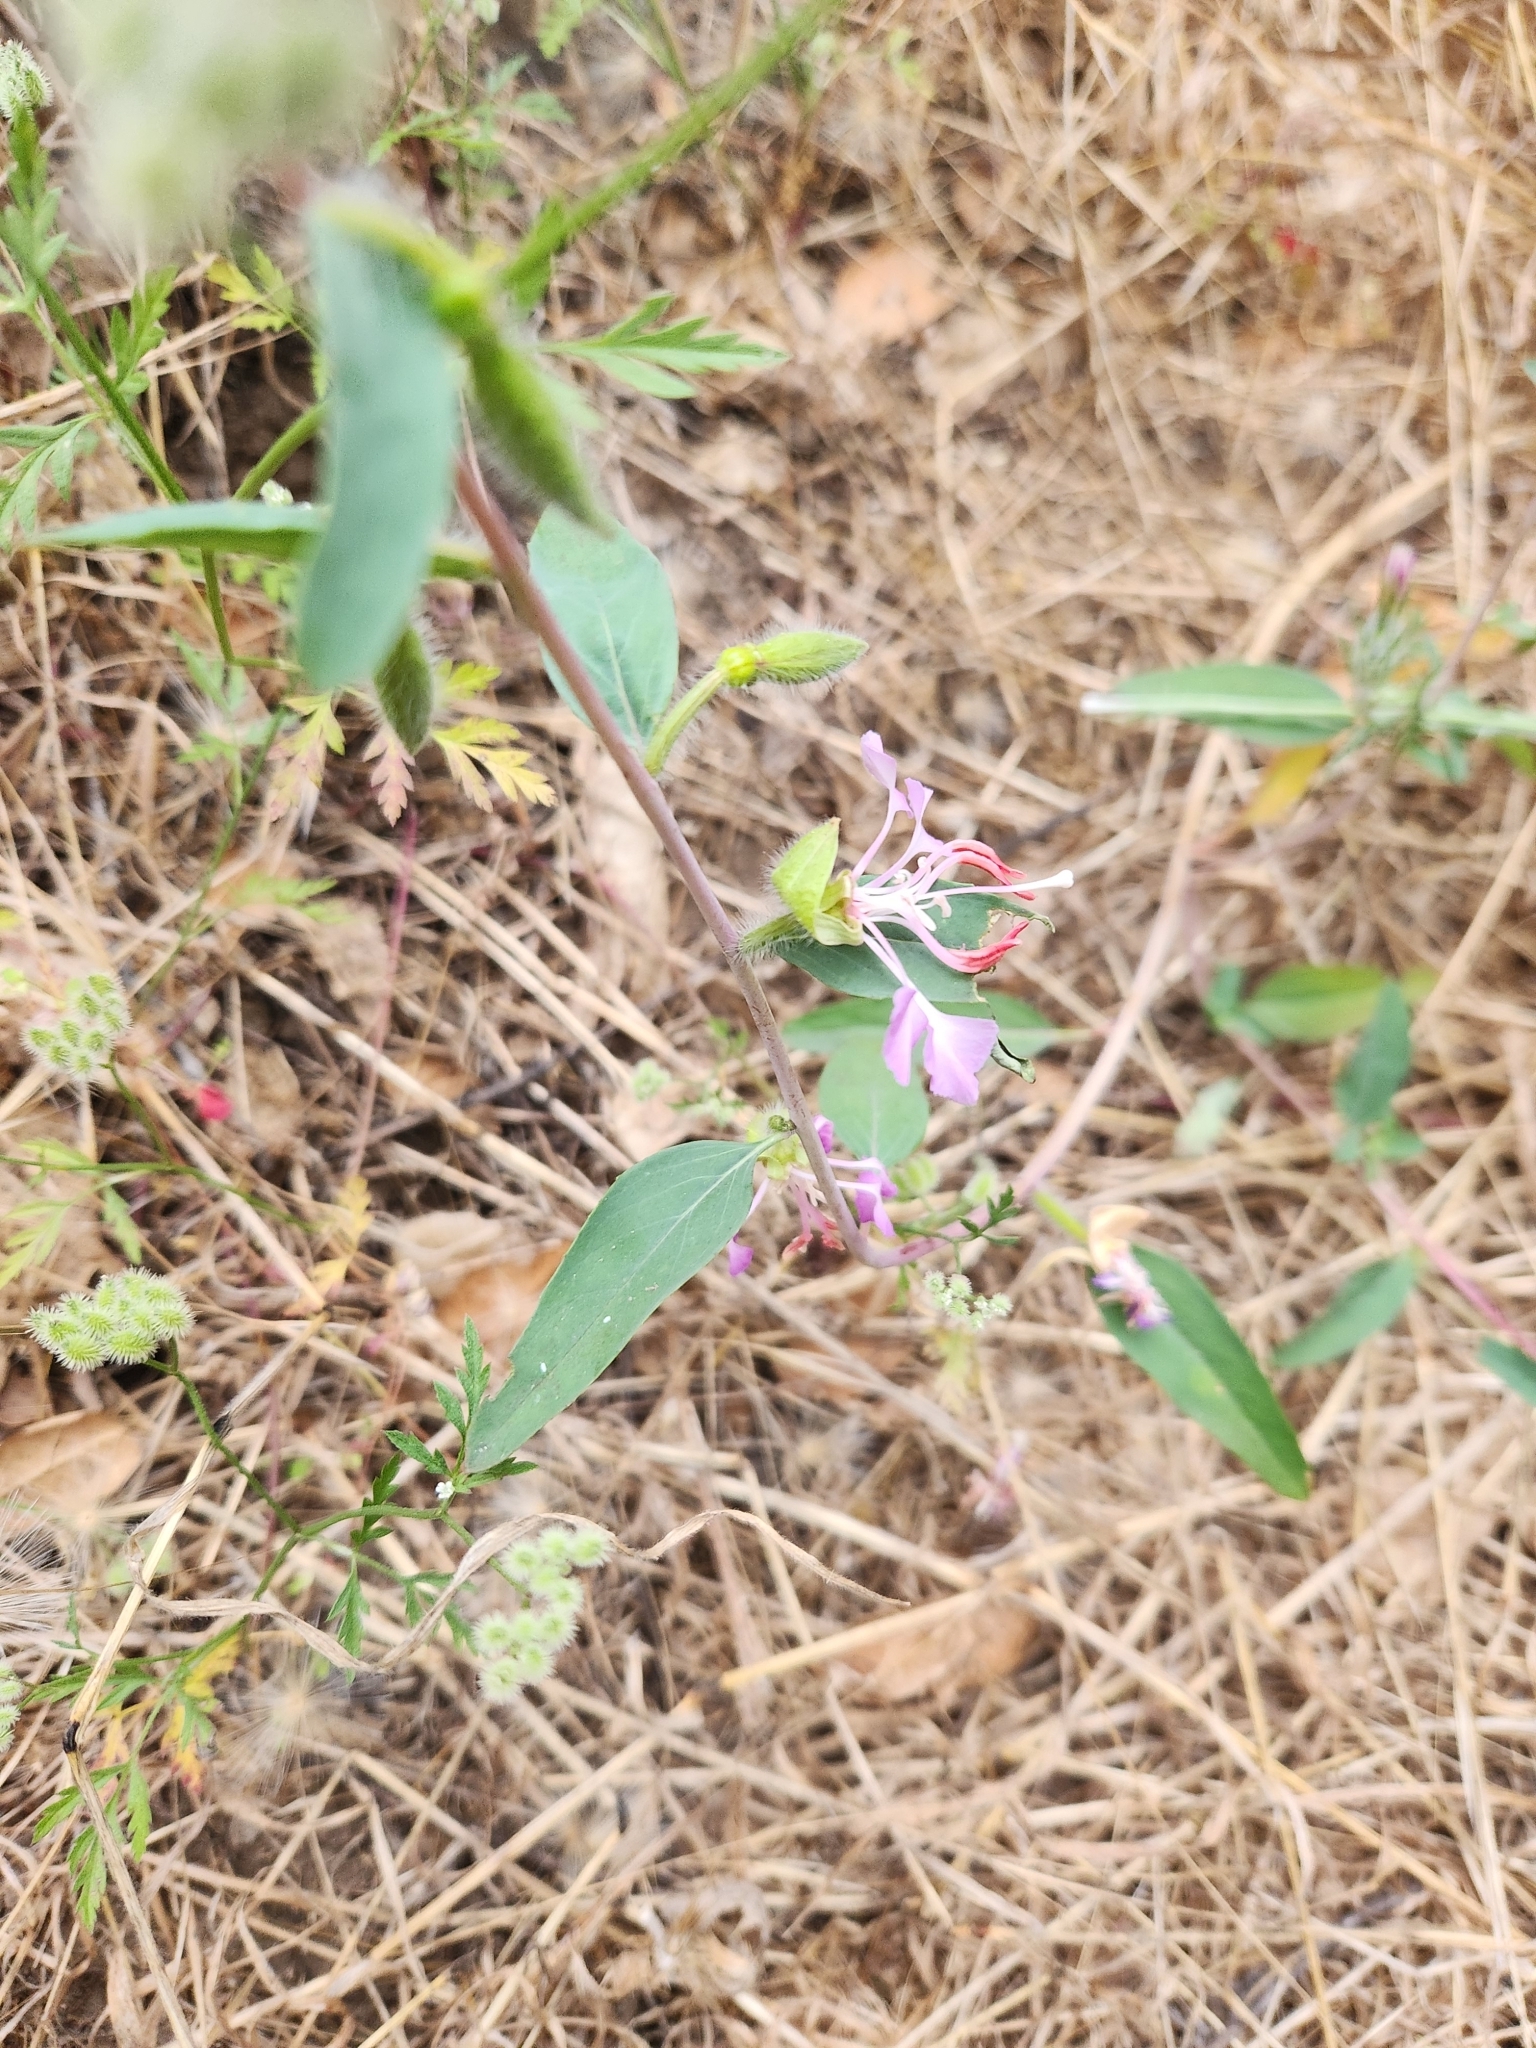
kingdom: Plantae
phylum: Tracheophyta
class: Magnoliopsida
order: Myrtales
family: Onagraceae
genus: Clarkia
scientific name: Clarkia unguiculata
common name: Clarkia
